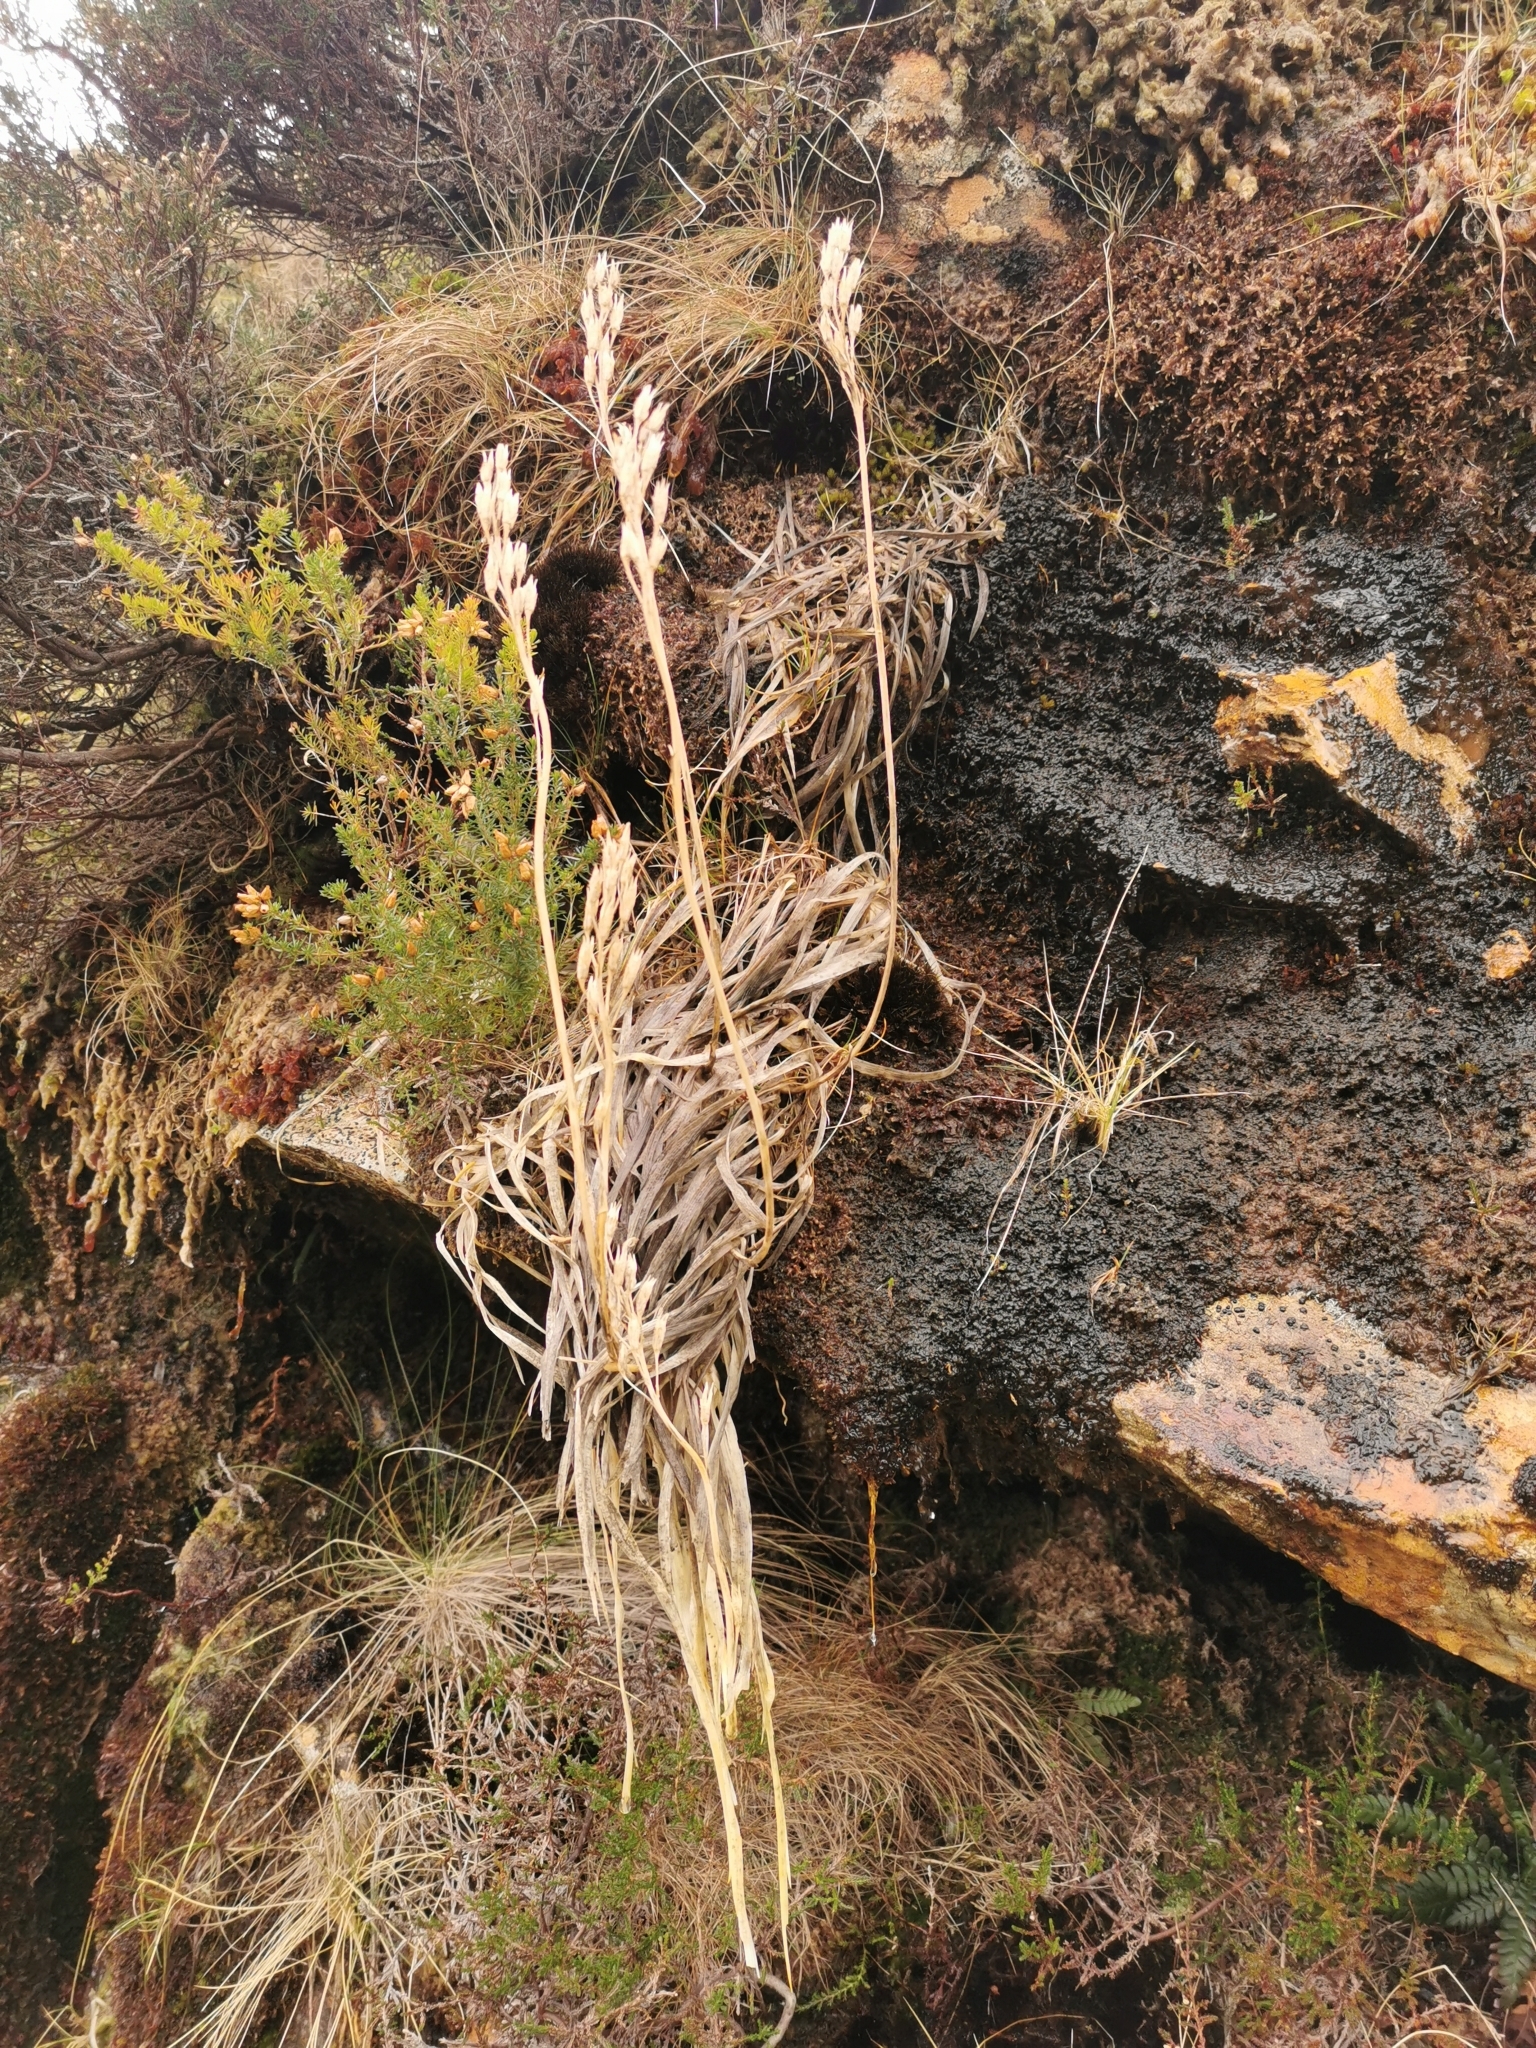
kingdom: Plantae
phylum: Tracheophyta
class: Liliopsida
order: Dioscoreales
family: Nartheciaceae
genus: Narthecium
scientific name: Narthecium ossifragum
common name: Bog asphodel
